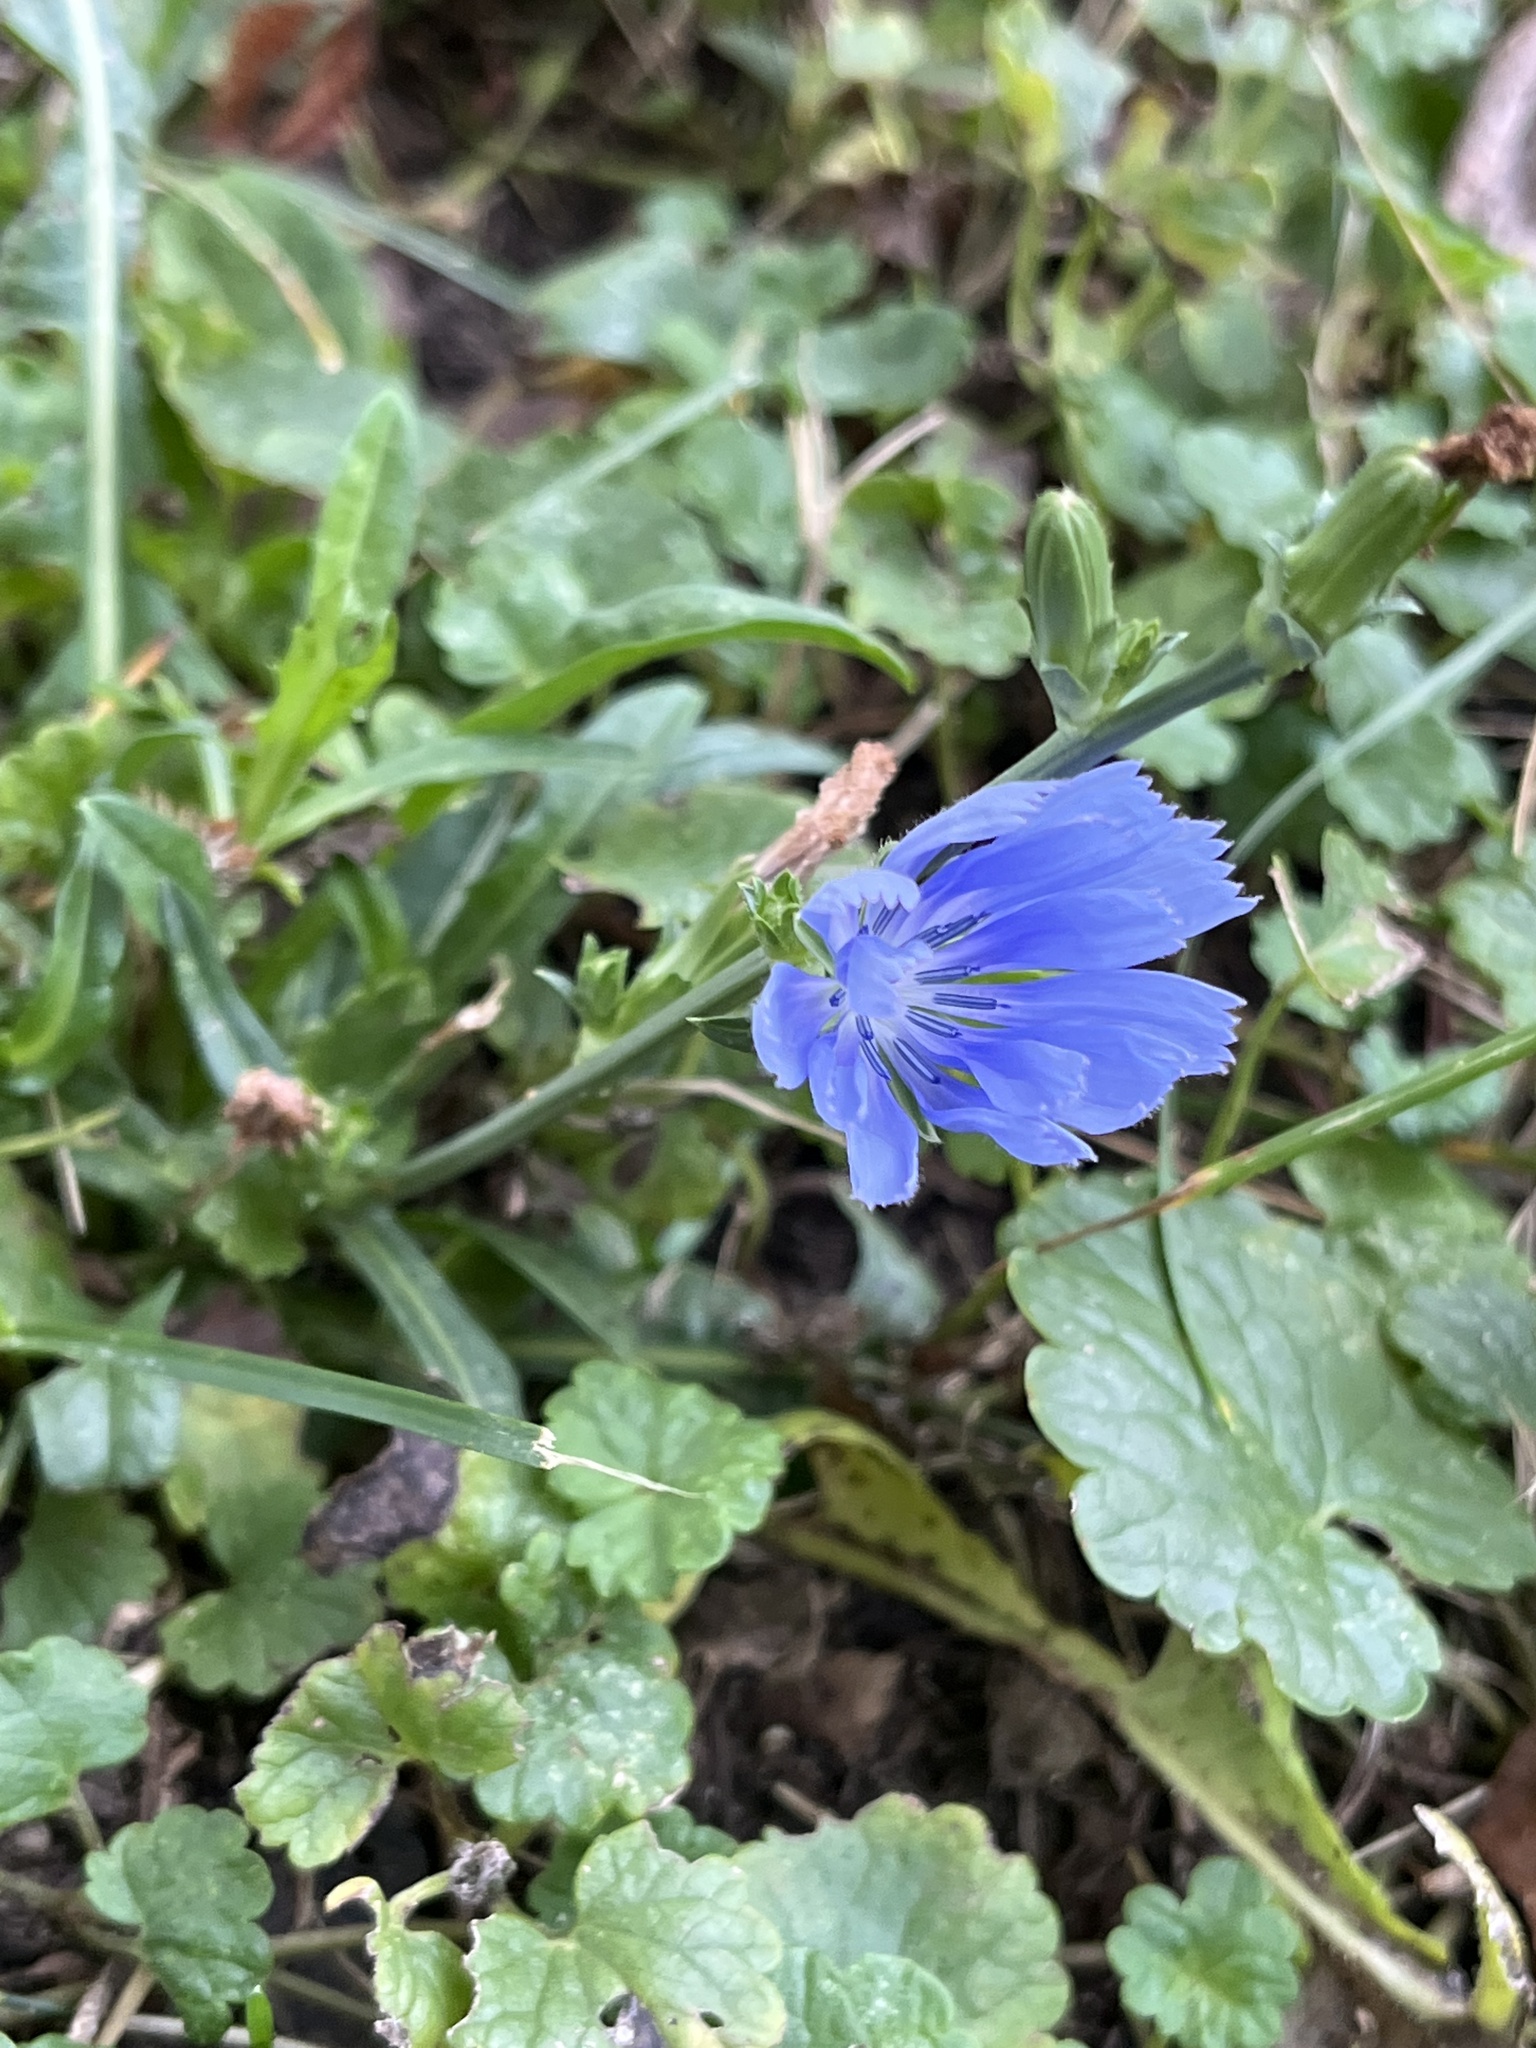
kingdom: Plantae
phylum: Tracheophyta
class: Magnoliopsida
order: Asterales
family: Asteraceae
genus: Cichorium
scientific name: Cichorium intybus
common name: Chicory
